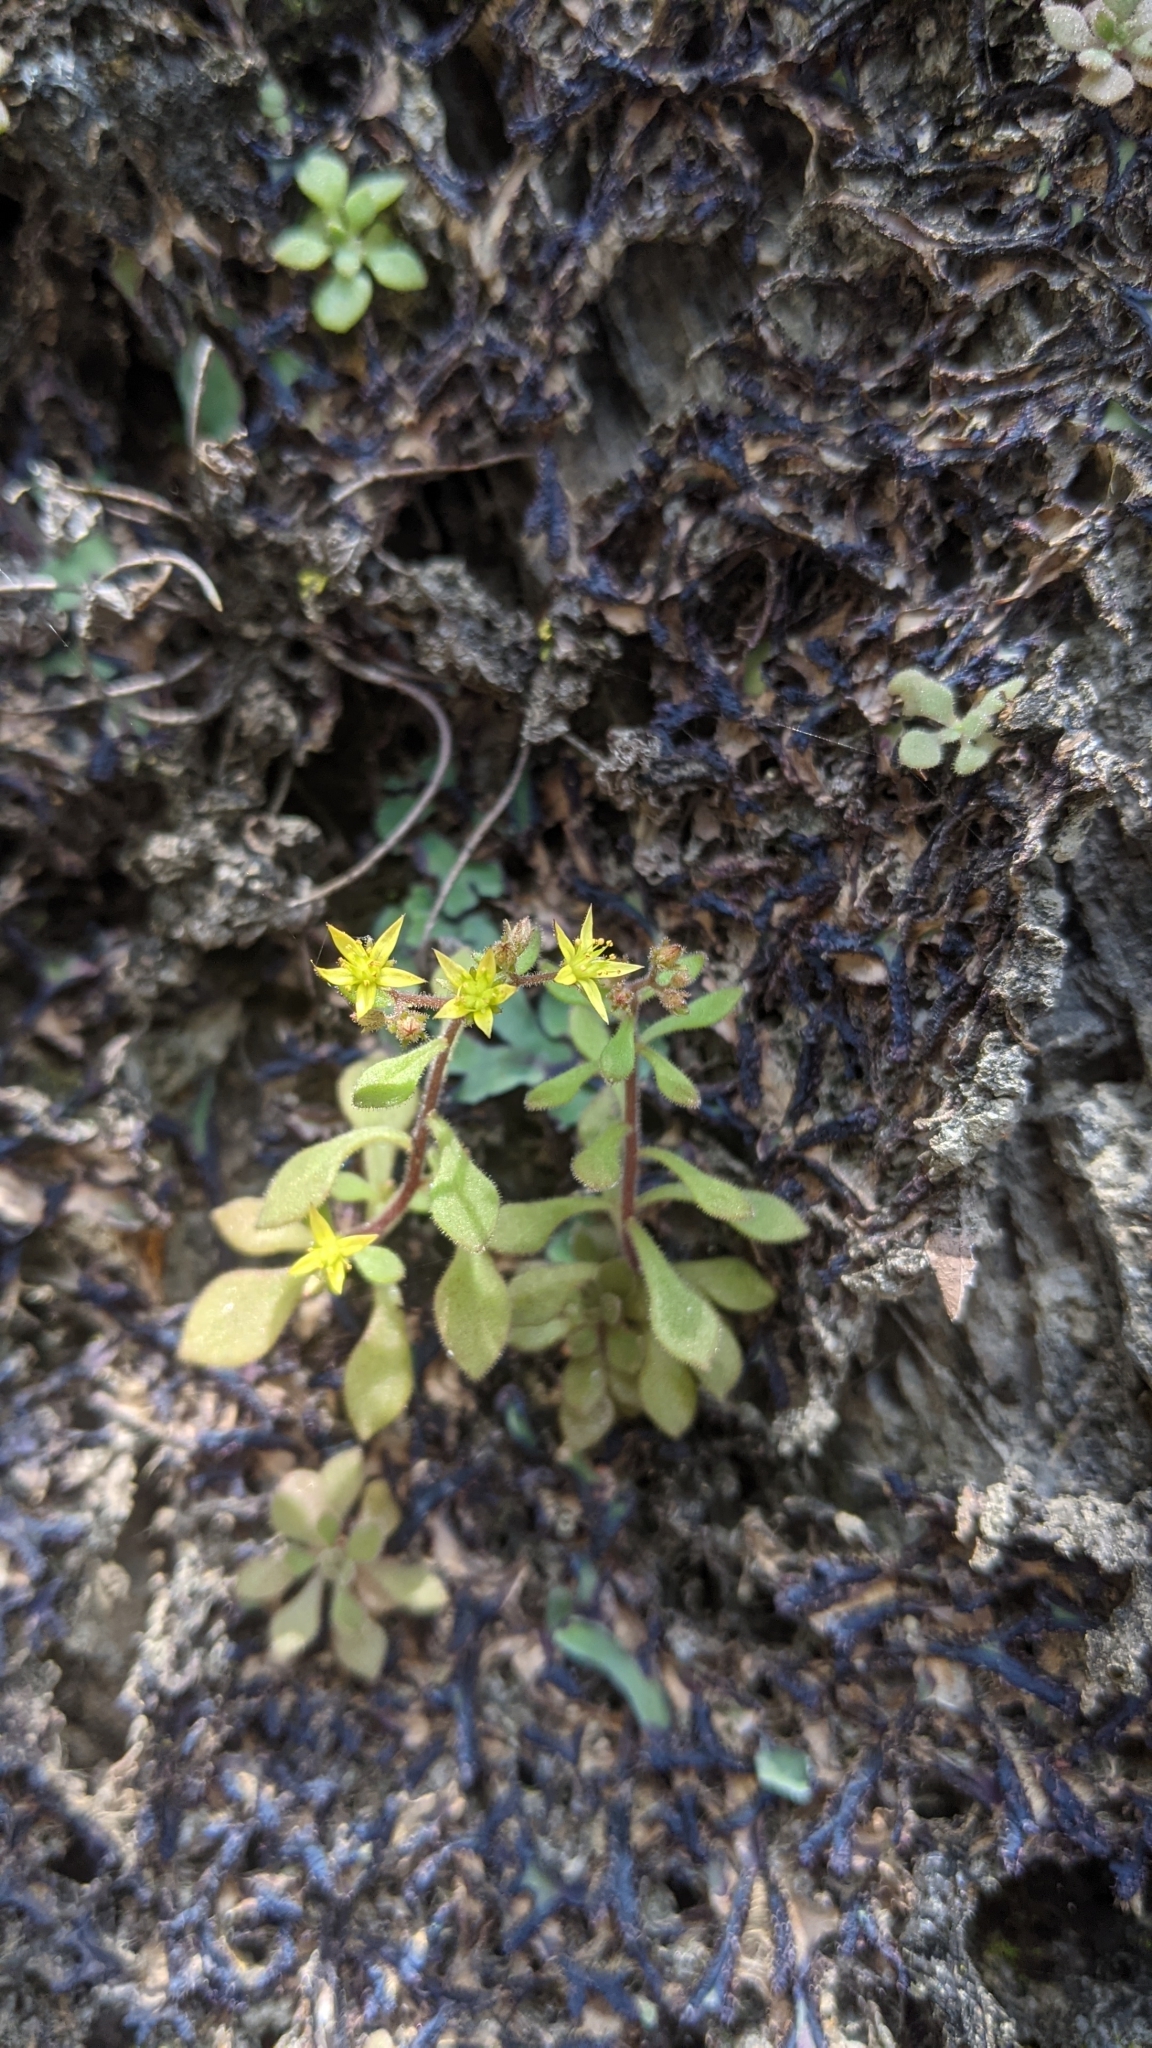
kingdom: Plantae
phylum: Tracheophyta
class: Magnoliopsida
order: Saxifragales
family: Crassulaceae
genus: Sedum
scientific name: Sedum stellariifolium
